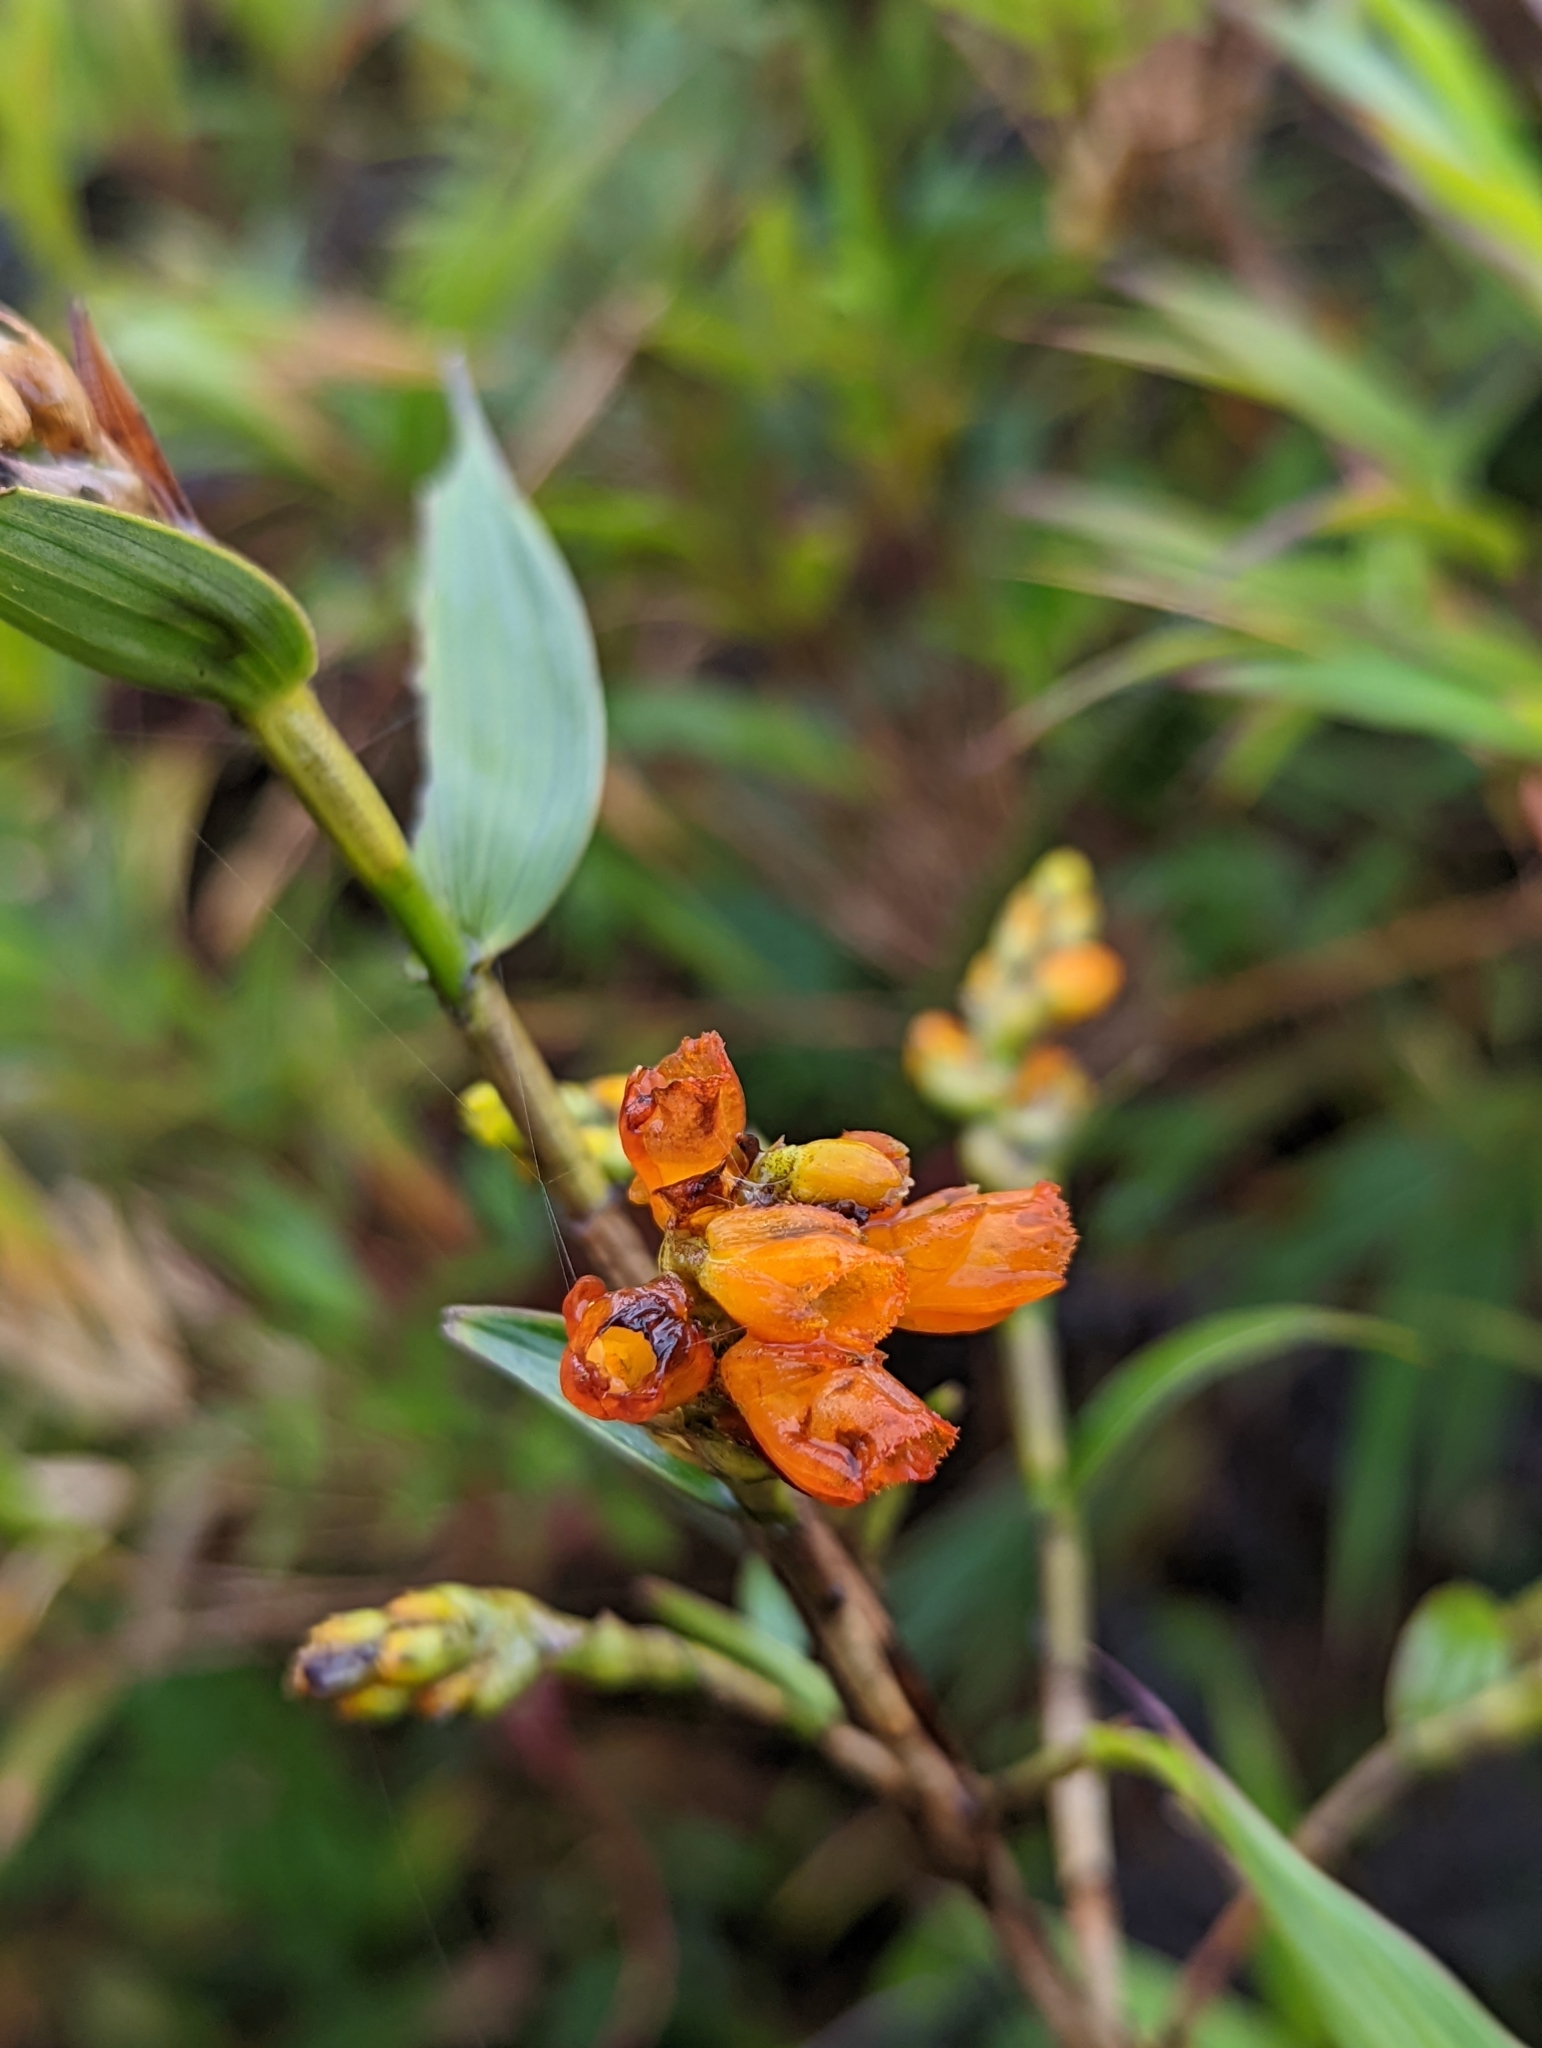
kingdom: Plantae
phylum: Tracheophyta
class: Liliopsida
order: Asparagales
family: Orchidaceae
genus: Elleanthus
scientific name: Elleanthus aurantiacus
